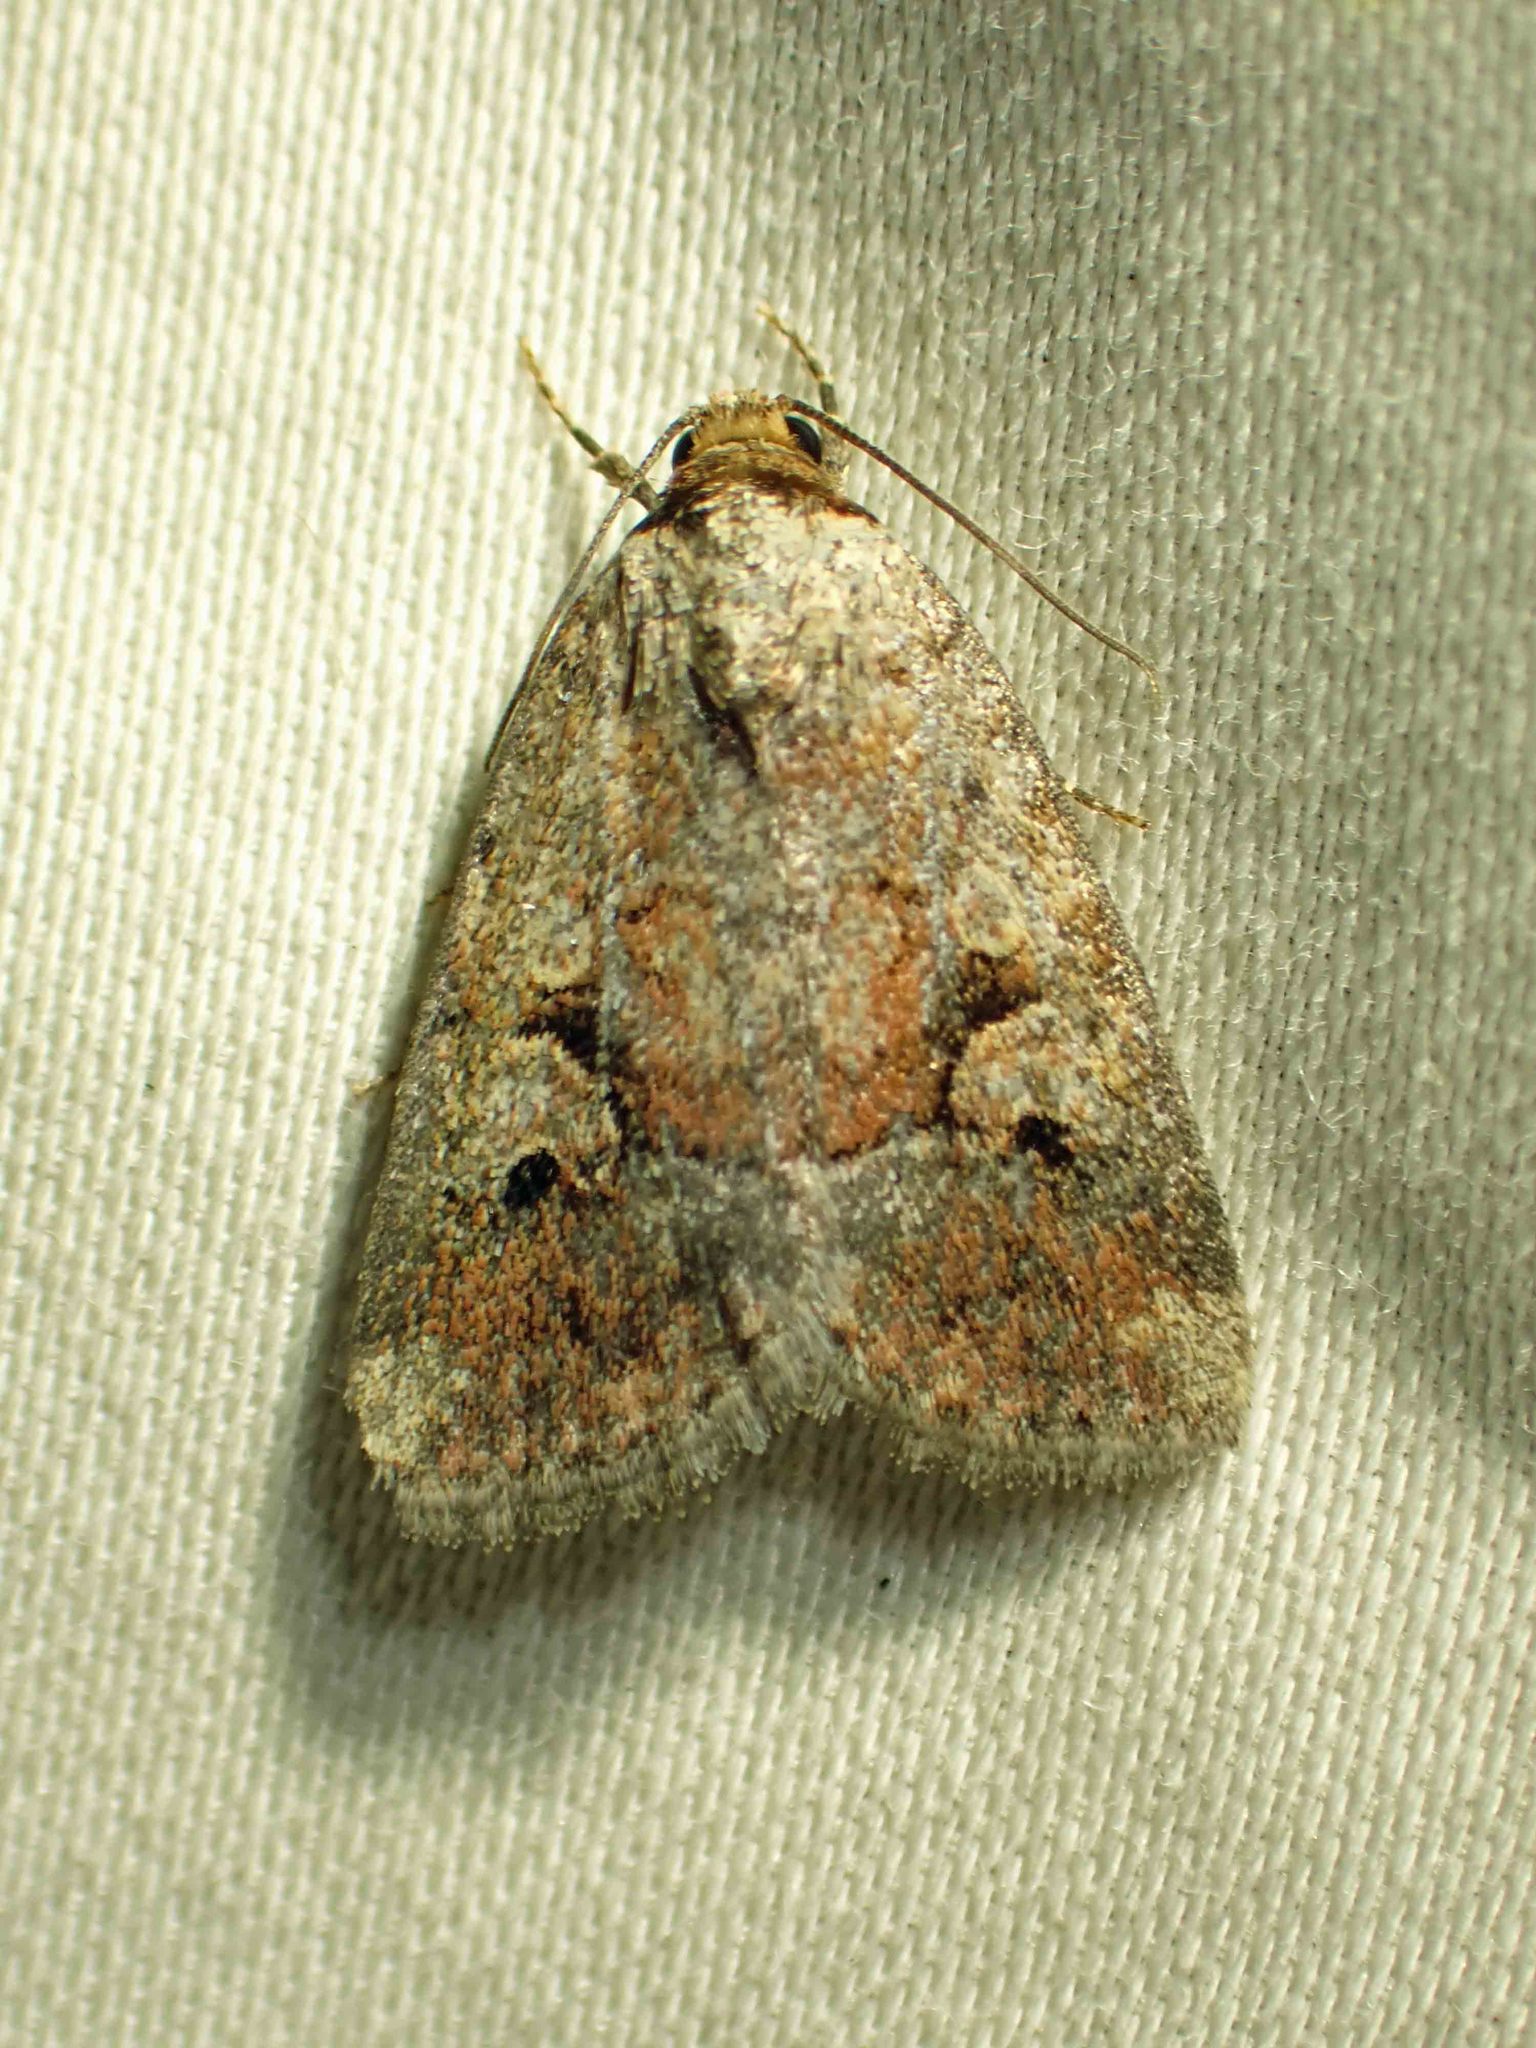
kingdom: Animalia
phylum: Arthropoda
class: Insecta
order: Lepidoptera
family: Noctuidae
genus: Elaphria
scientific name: Elaphria alapallida
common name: Pale-winged midget
